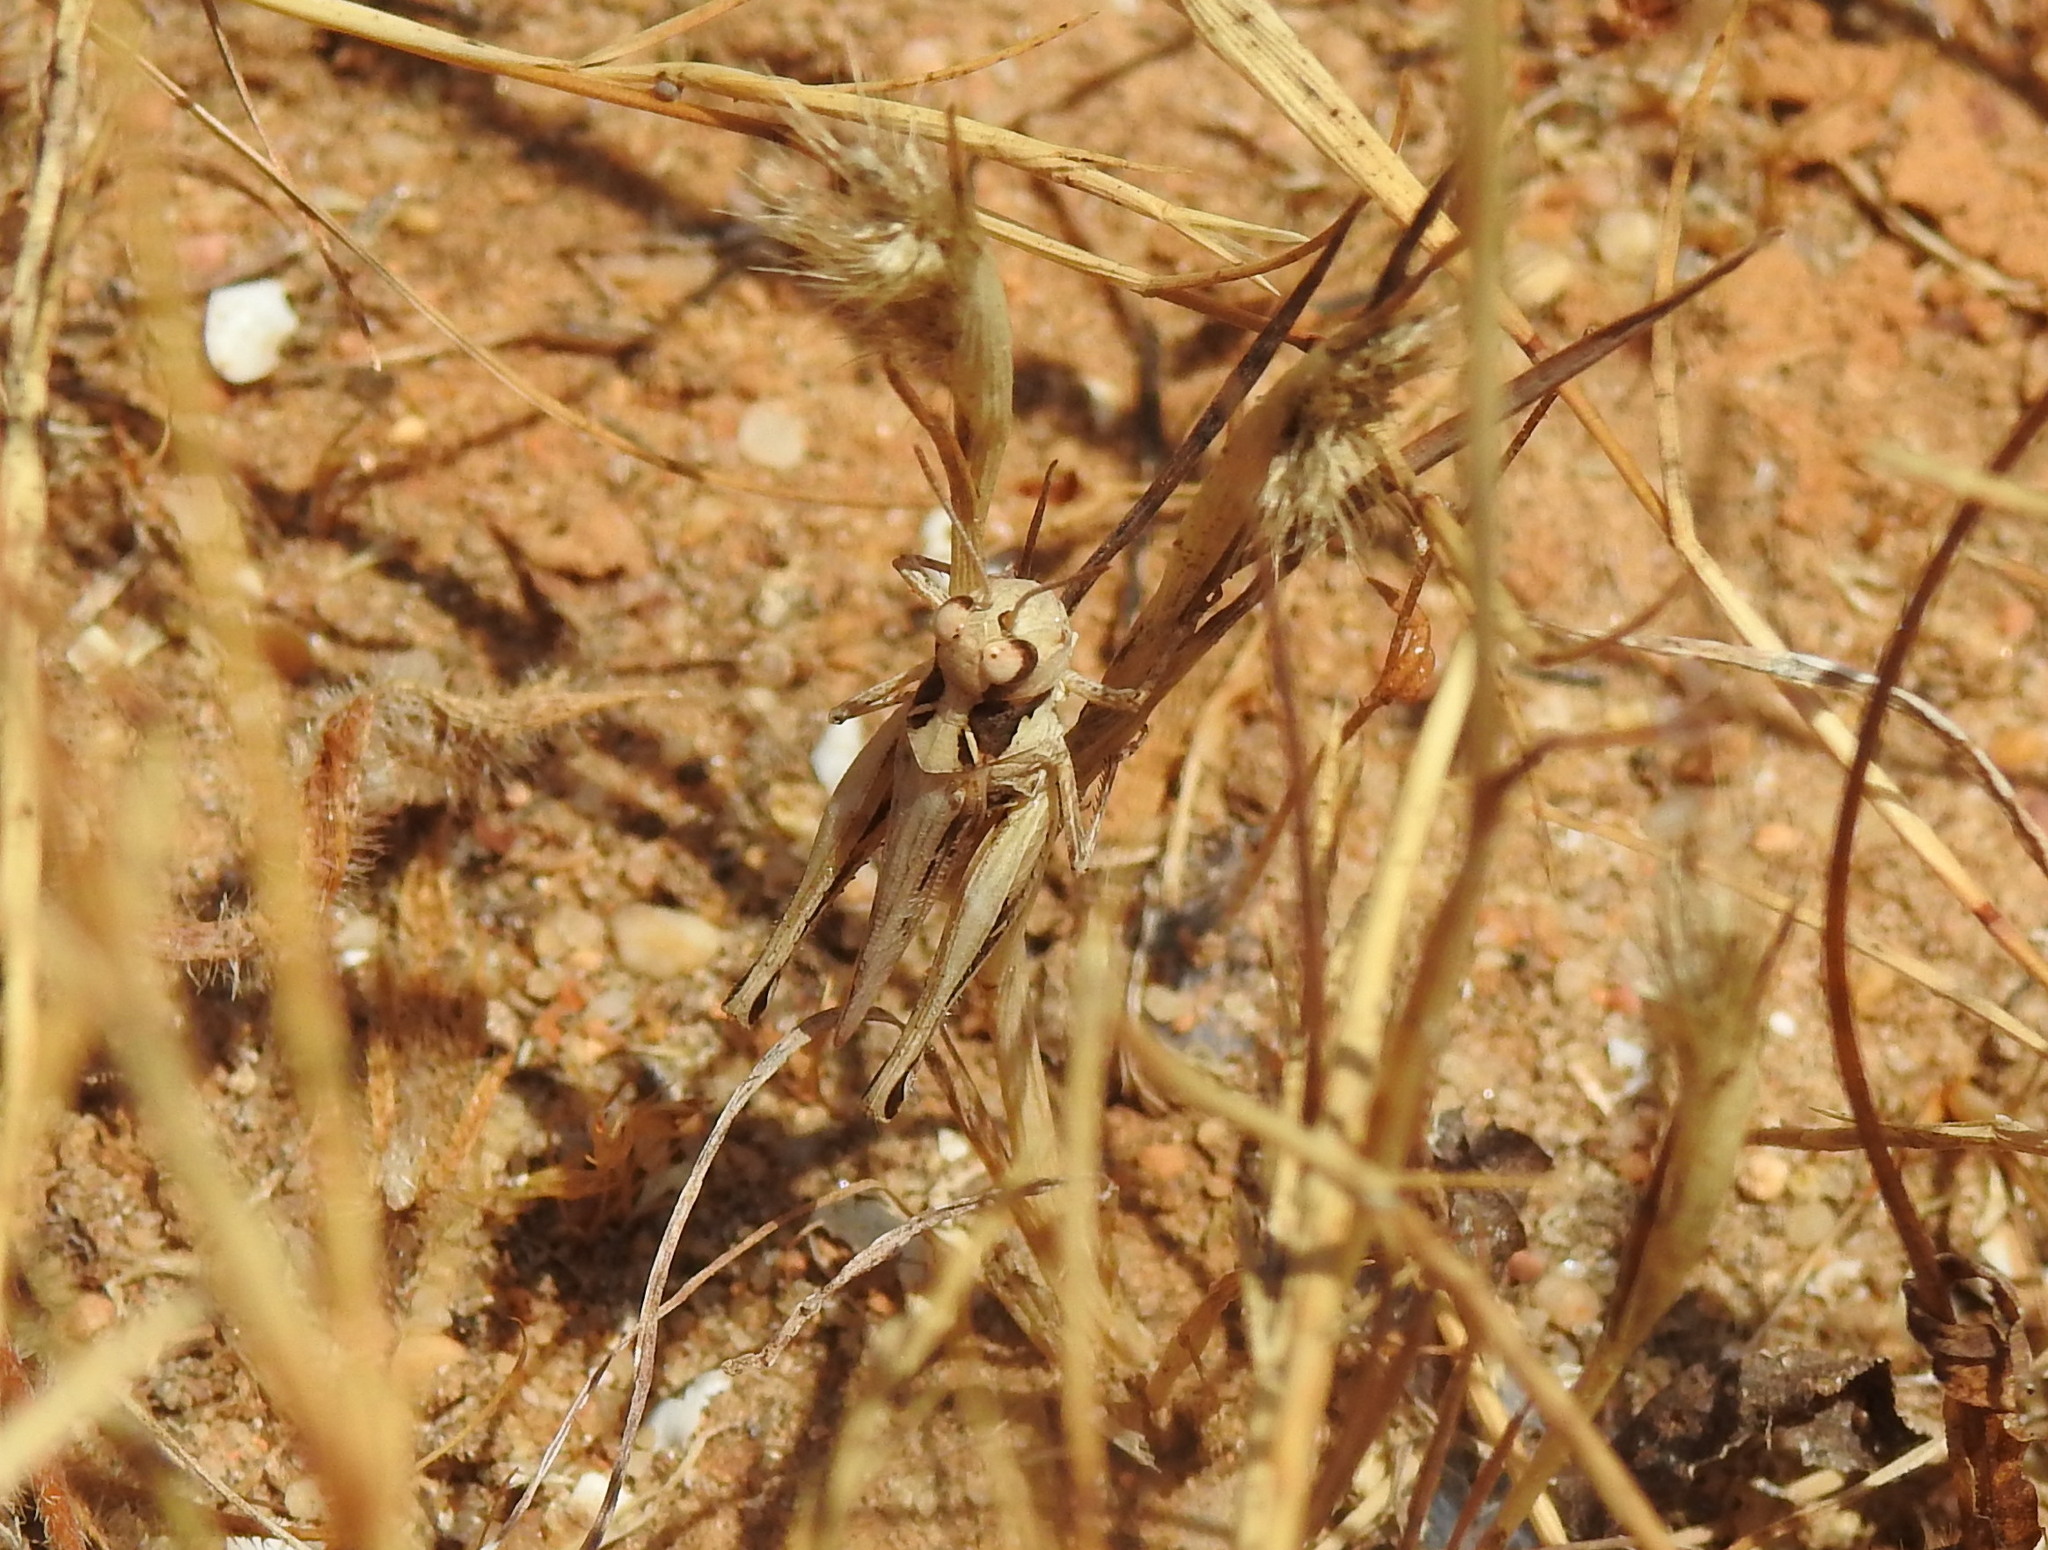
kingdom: Animalia
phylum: Arthropoda
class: Insecta
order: Orthoptera
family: Acrididae
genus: Dociostaurus
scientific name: Dociostaurus jagoi
